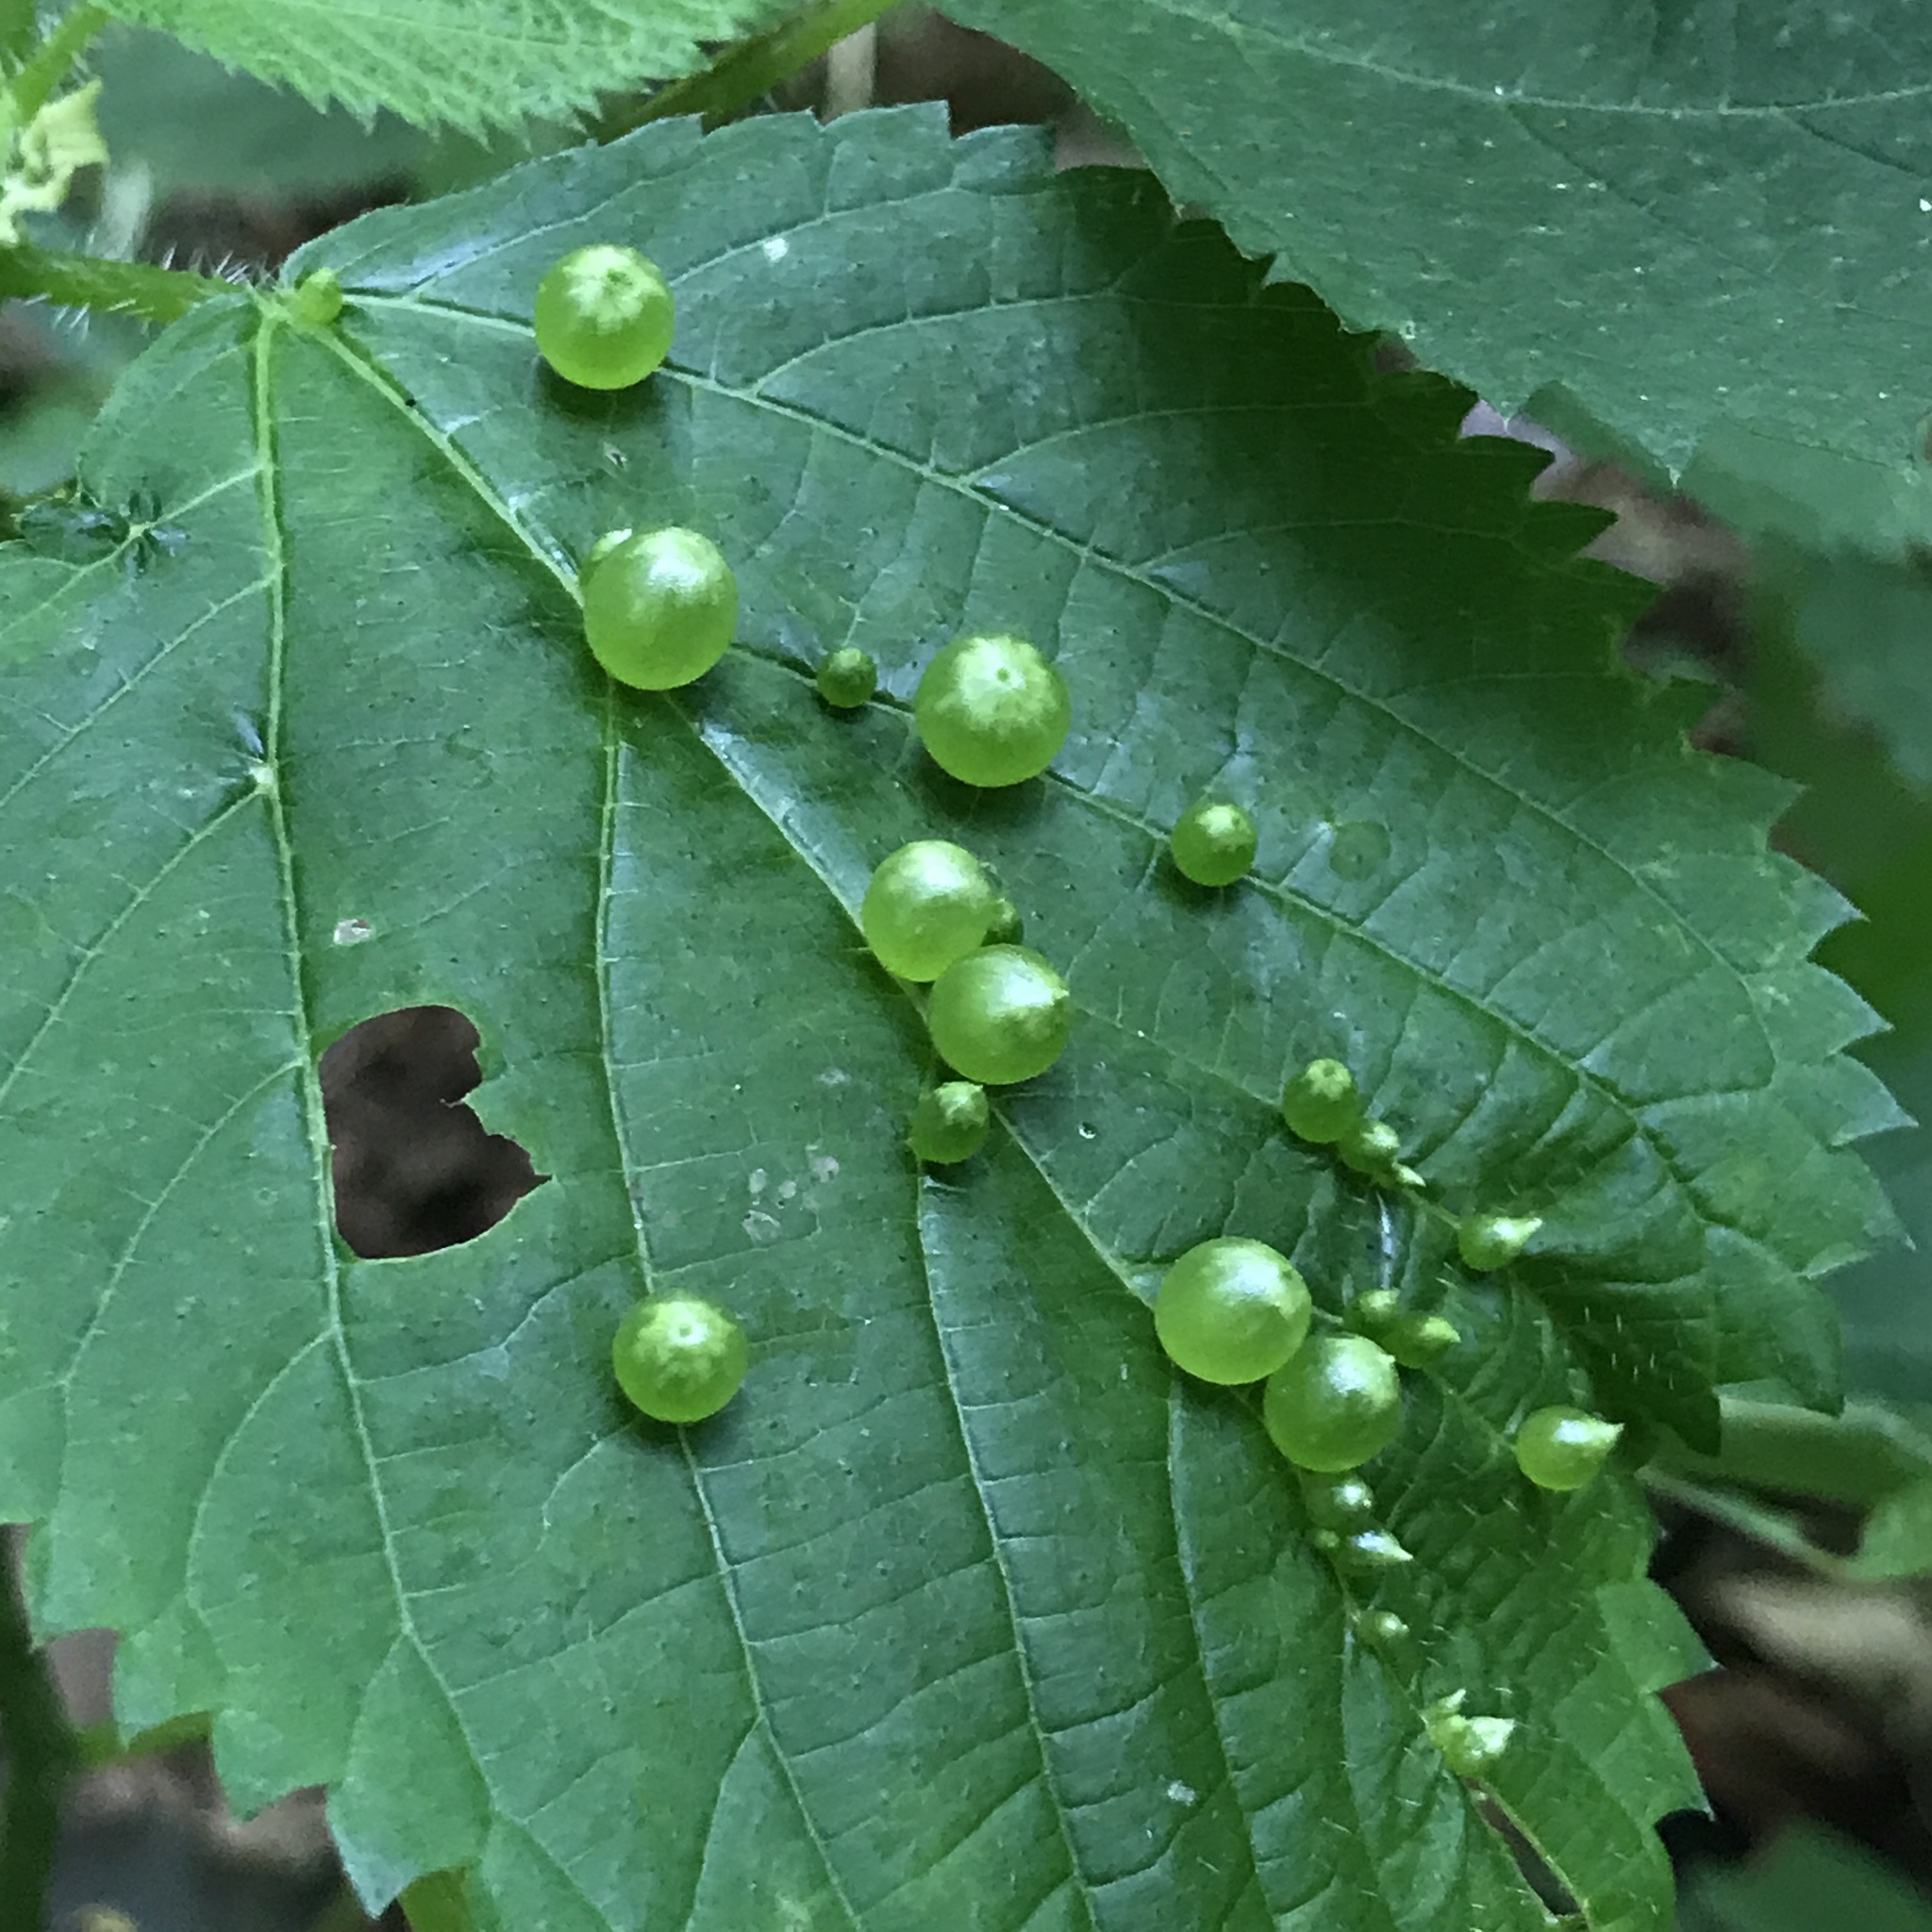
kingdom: Animalia
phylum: Arthropoda
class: Insecta
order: Diptera
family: Cecidomyiidae
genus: Dasineura
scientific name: Dasineura investita
